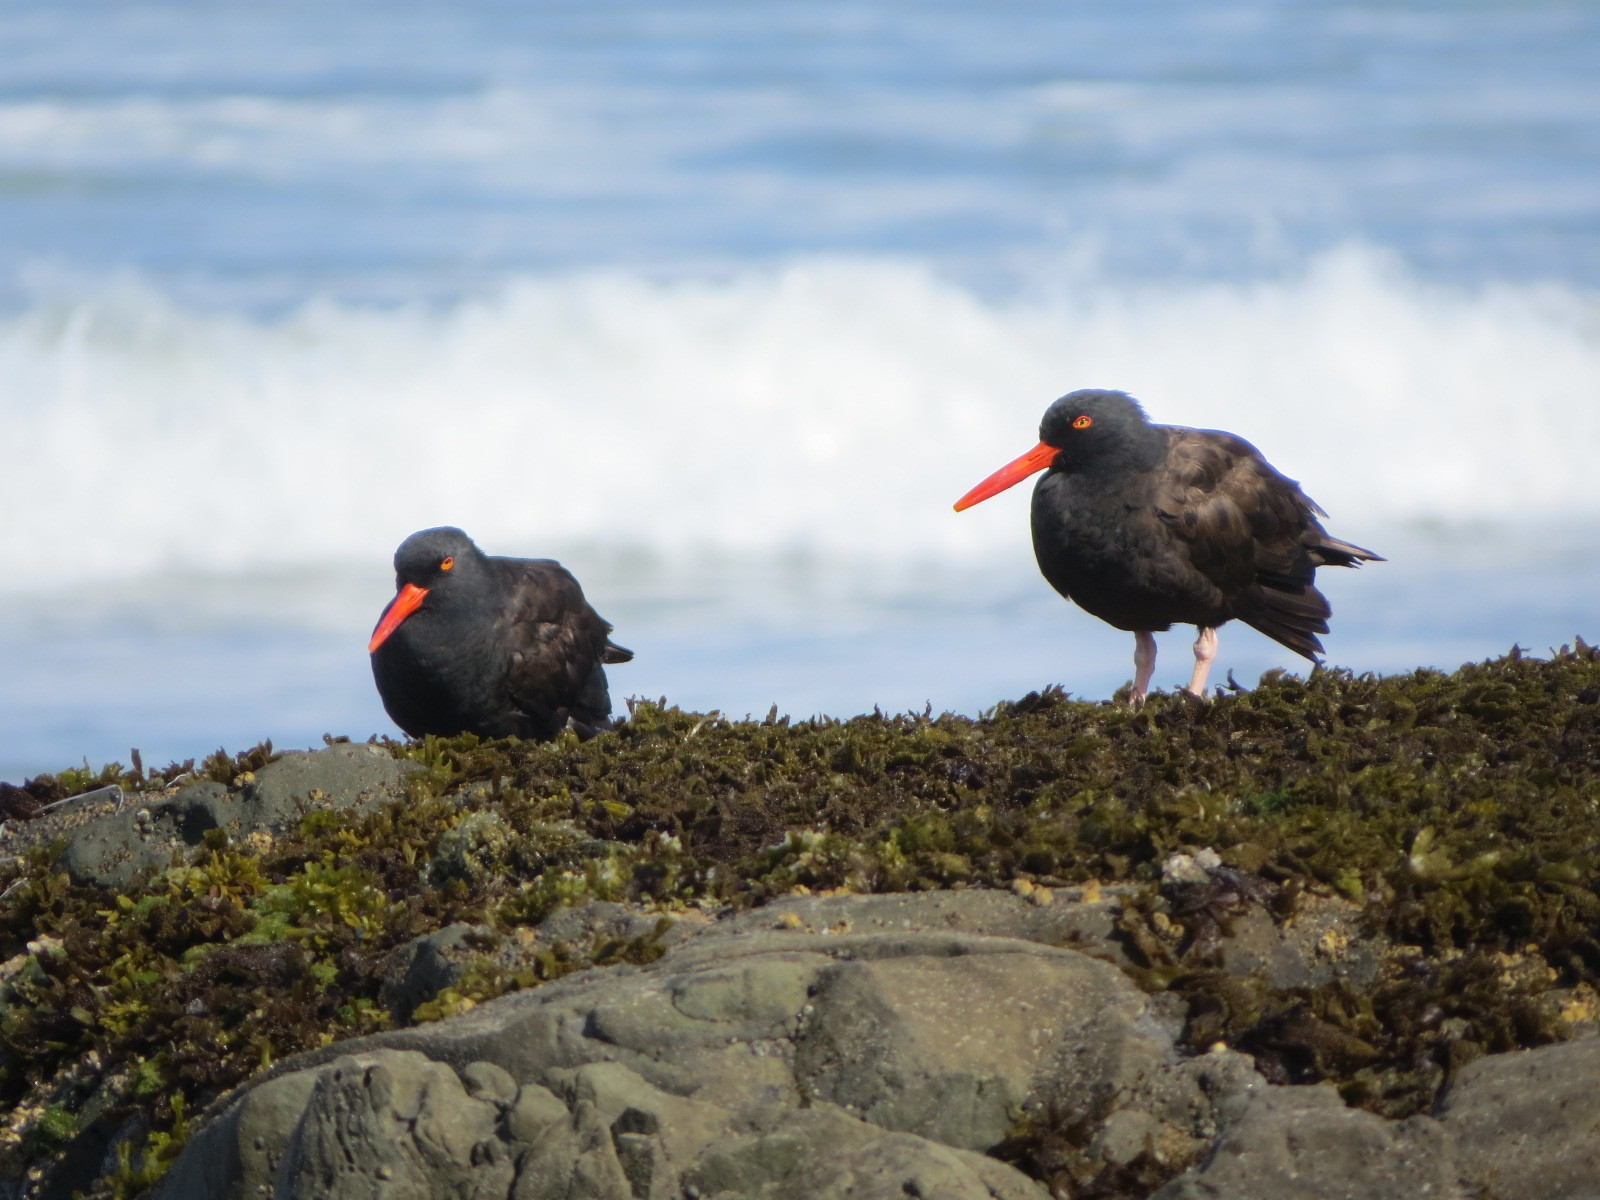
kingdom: Animalia
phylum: Chordata
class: Aves
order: Charadriiformes
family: Haematopodidae
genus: Haematopus
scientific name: Haematopus bachmani
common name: Black oystercatcher
